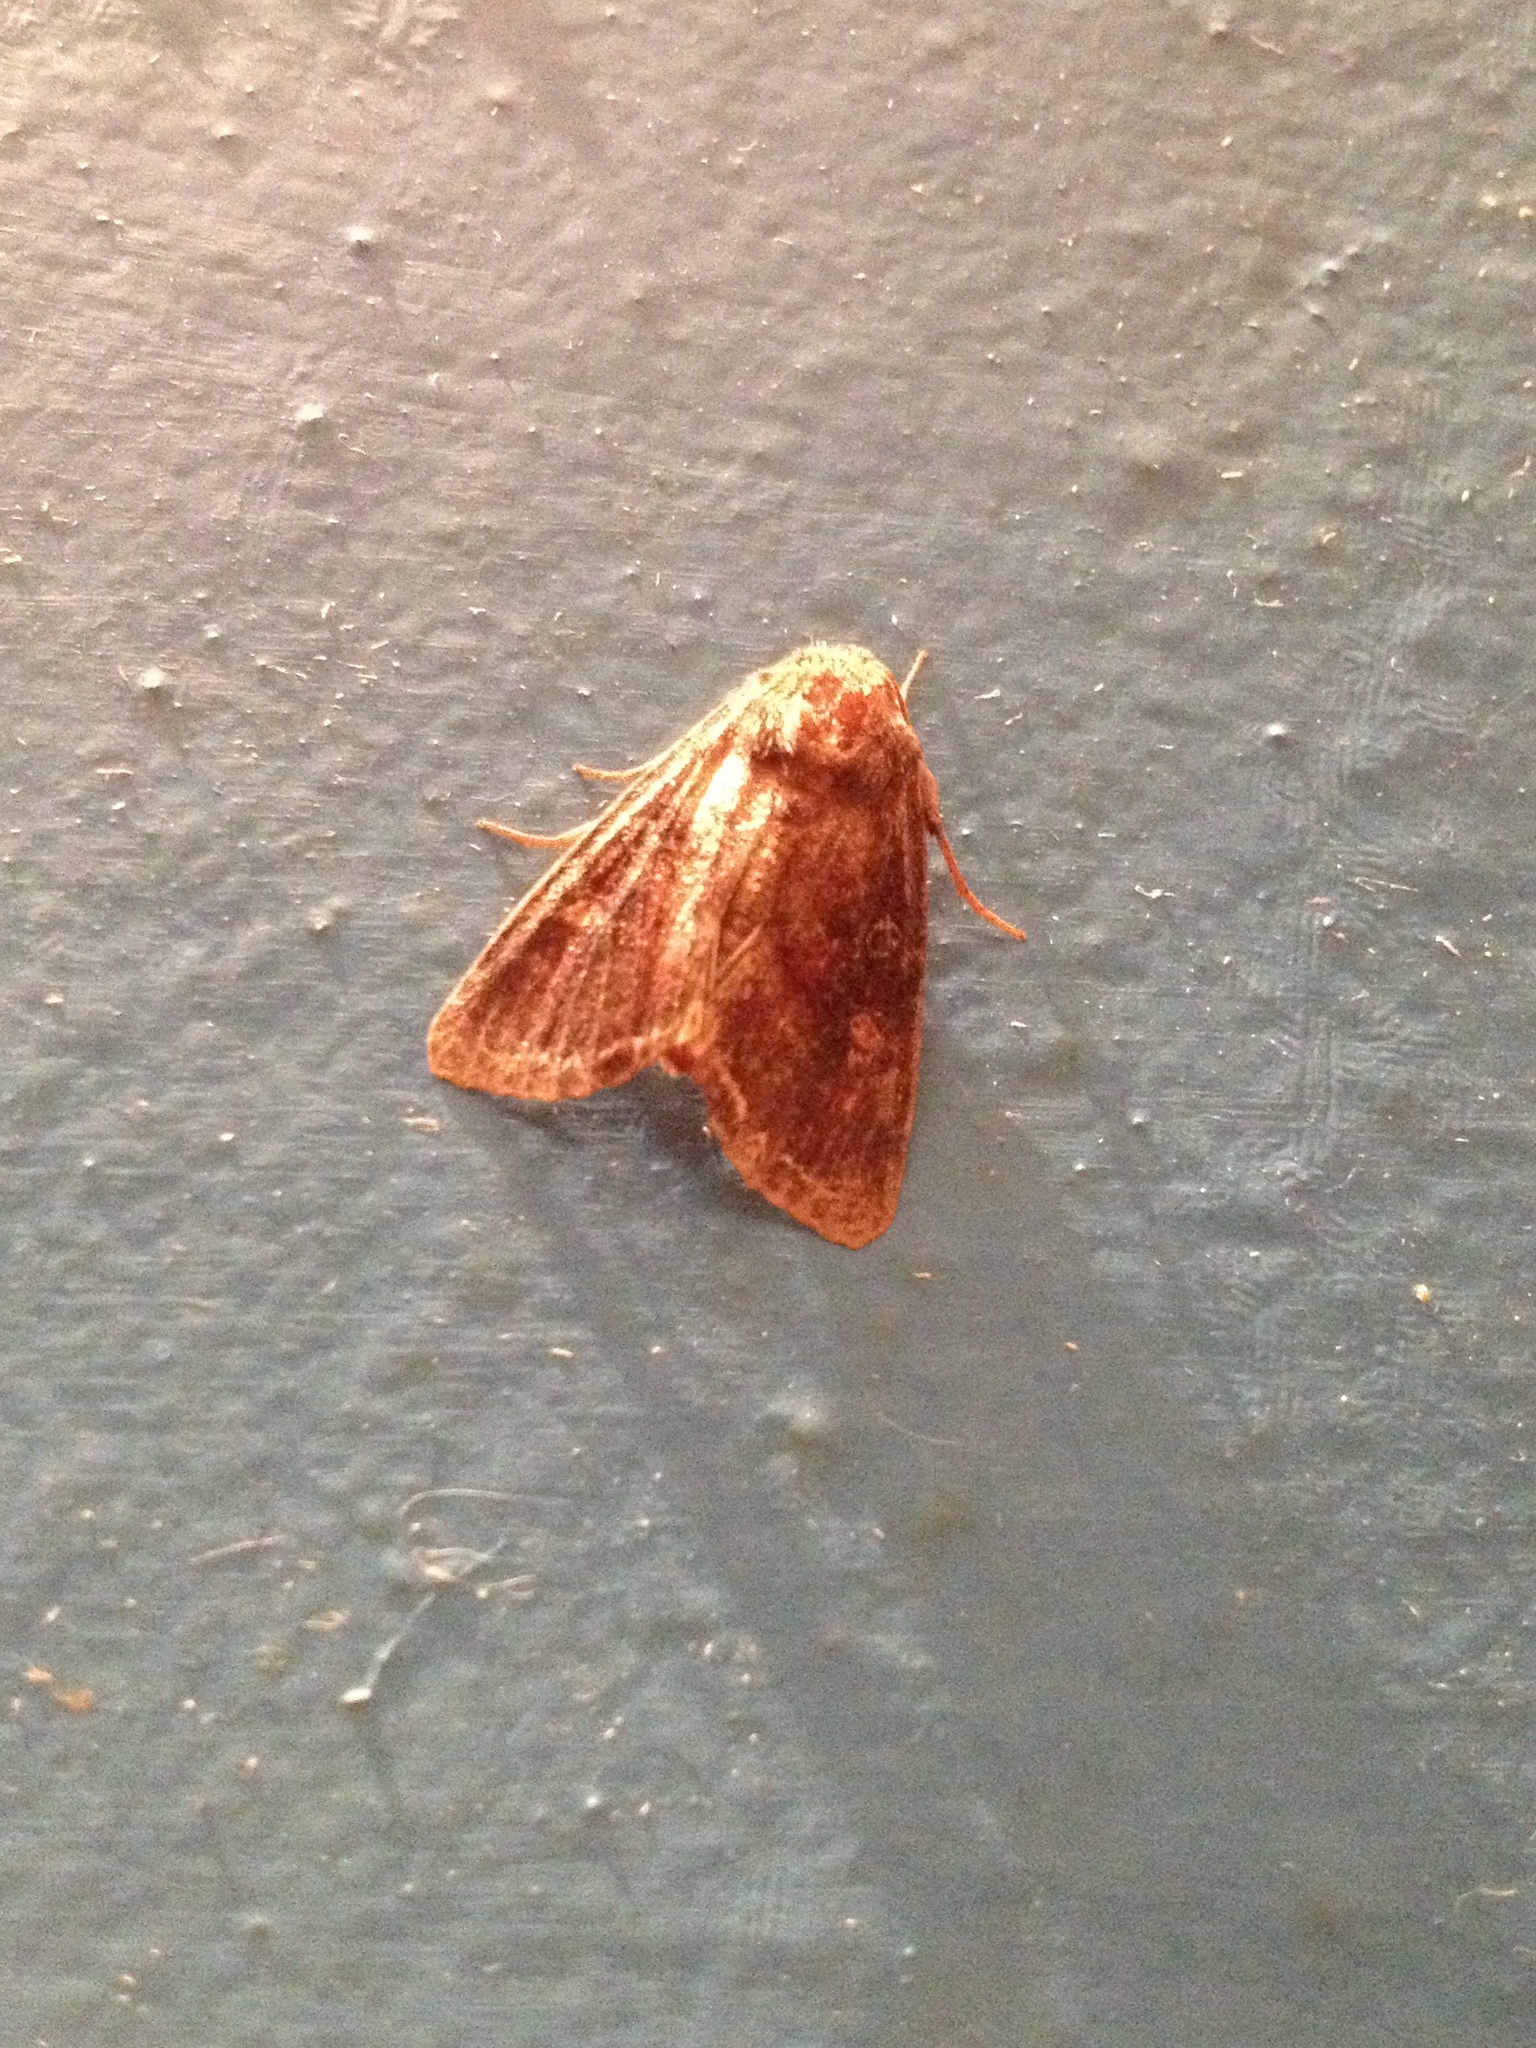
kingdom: Animalia
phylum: Arthropoda
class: Insecta
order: Lepidoptera
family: Noctuidae
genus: Lacanobia
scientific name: Lacanobia oleracea
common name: Bright-line brown-eye
